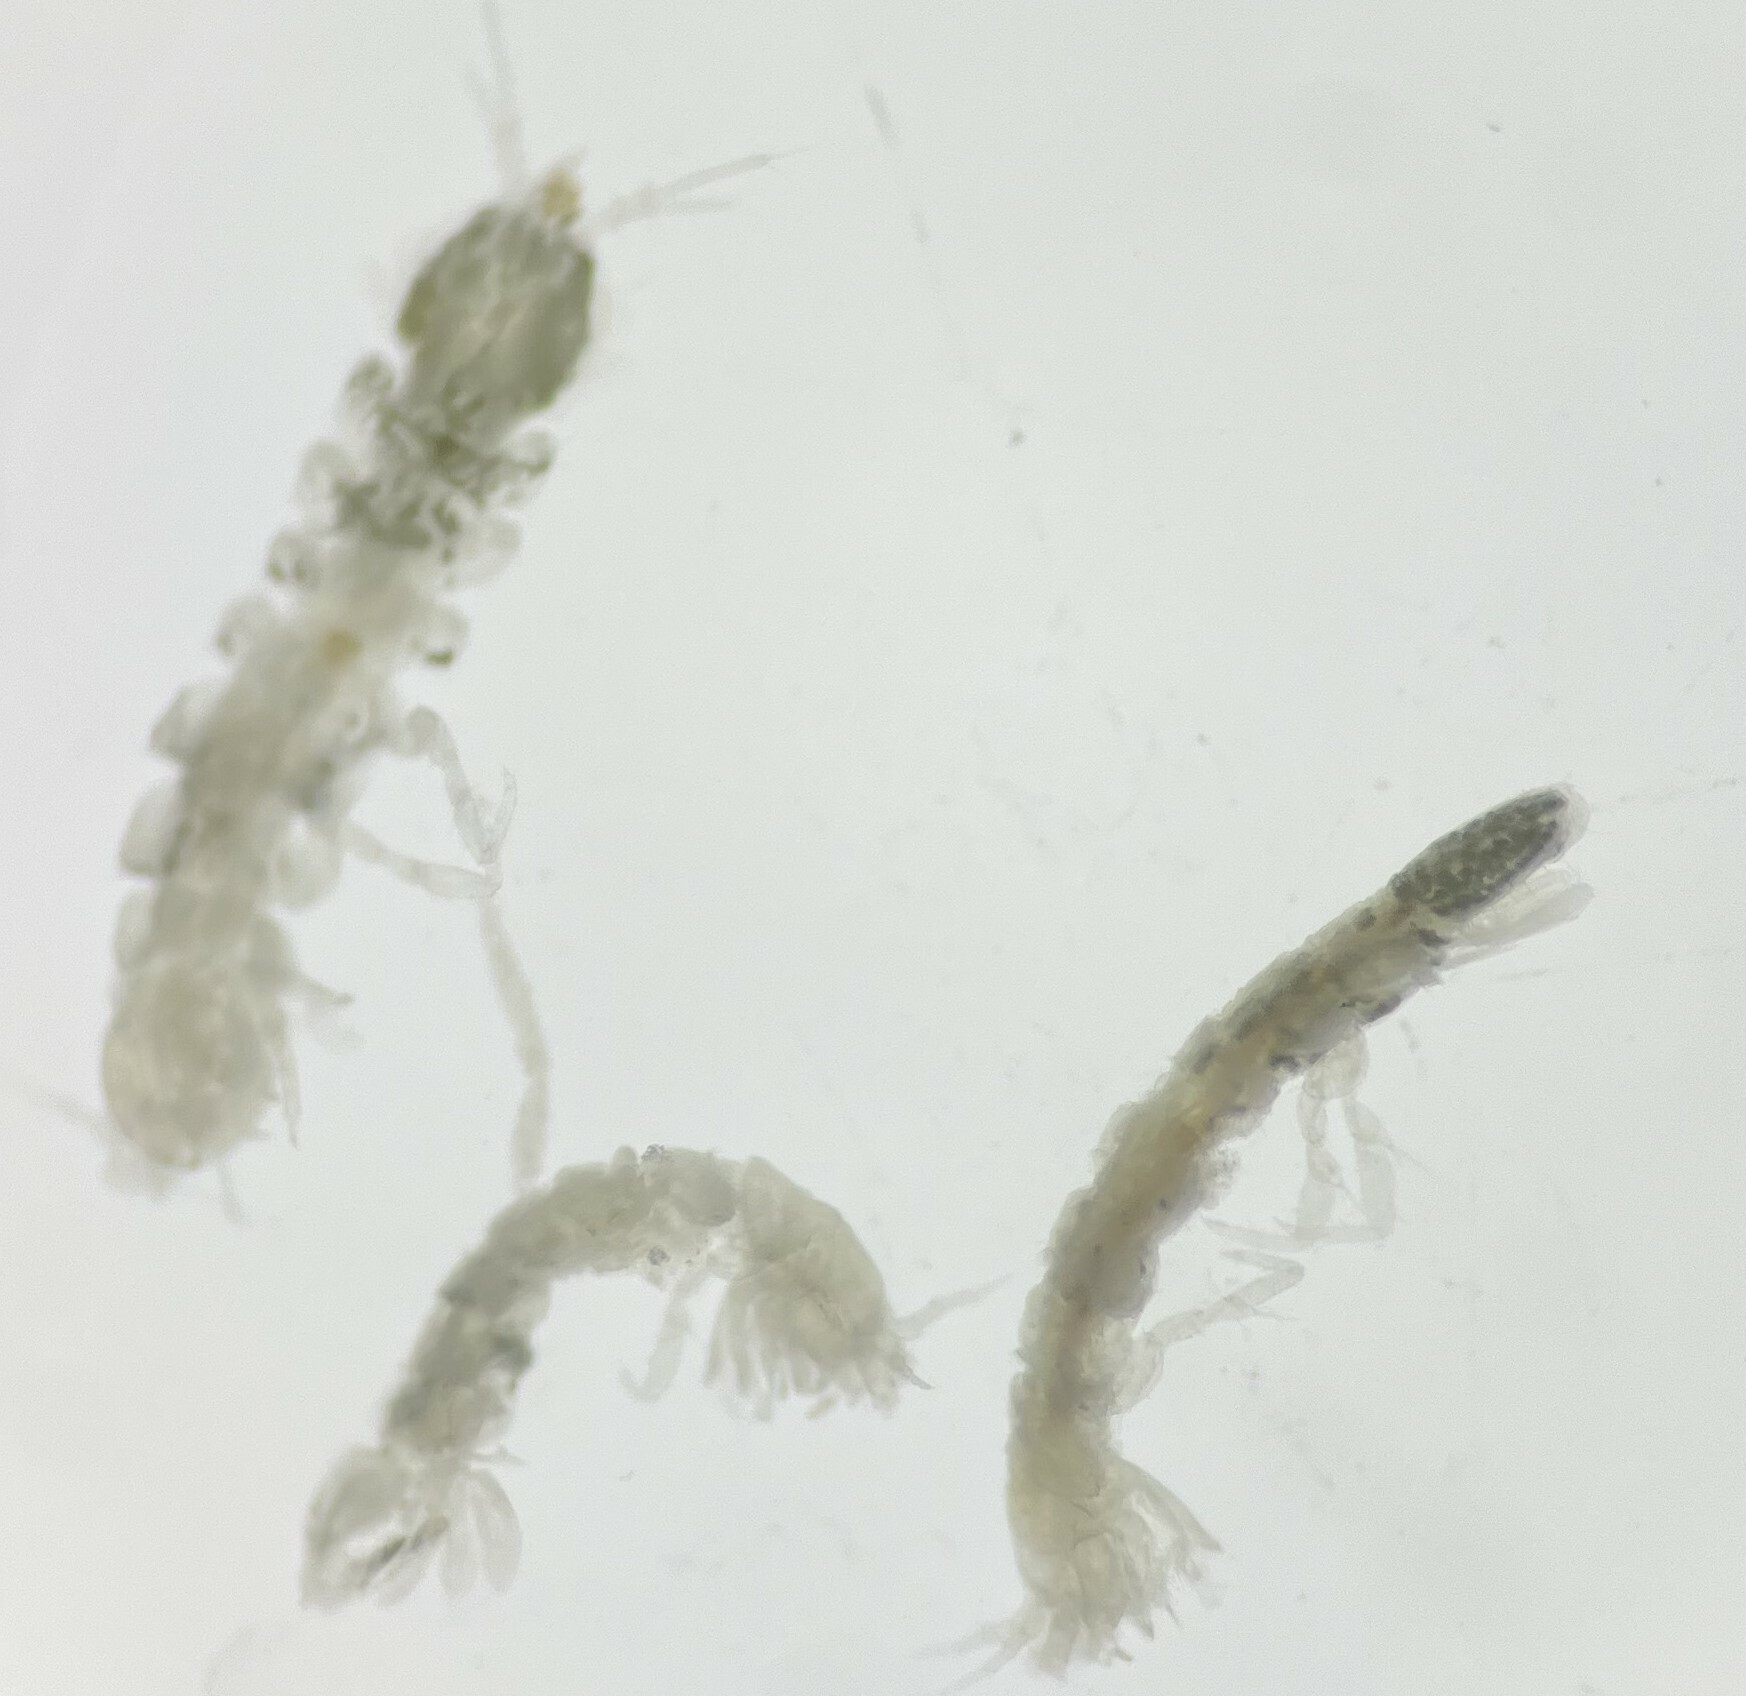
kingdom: Animalia
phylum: Arthropoda
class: Malacostraca
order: Isopoda
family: Asellidae
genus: Lirceolus
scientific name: Lirceolus pilus
